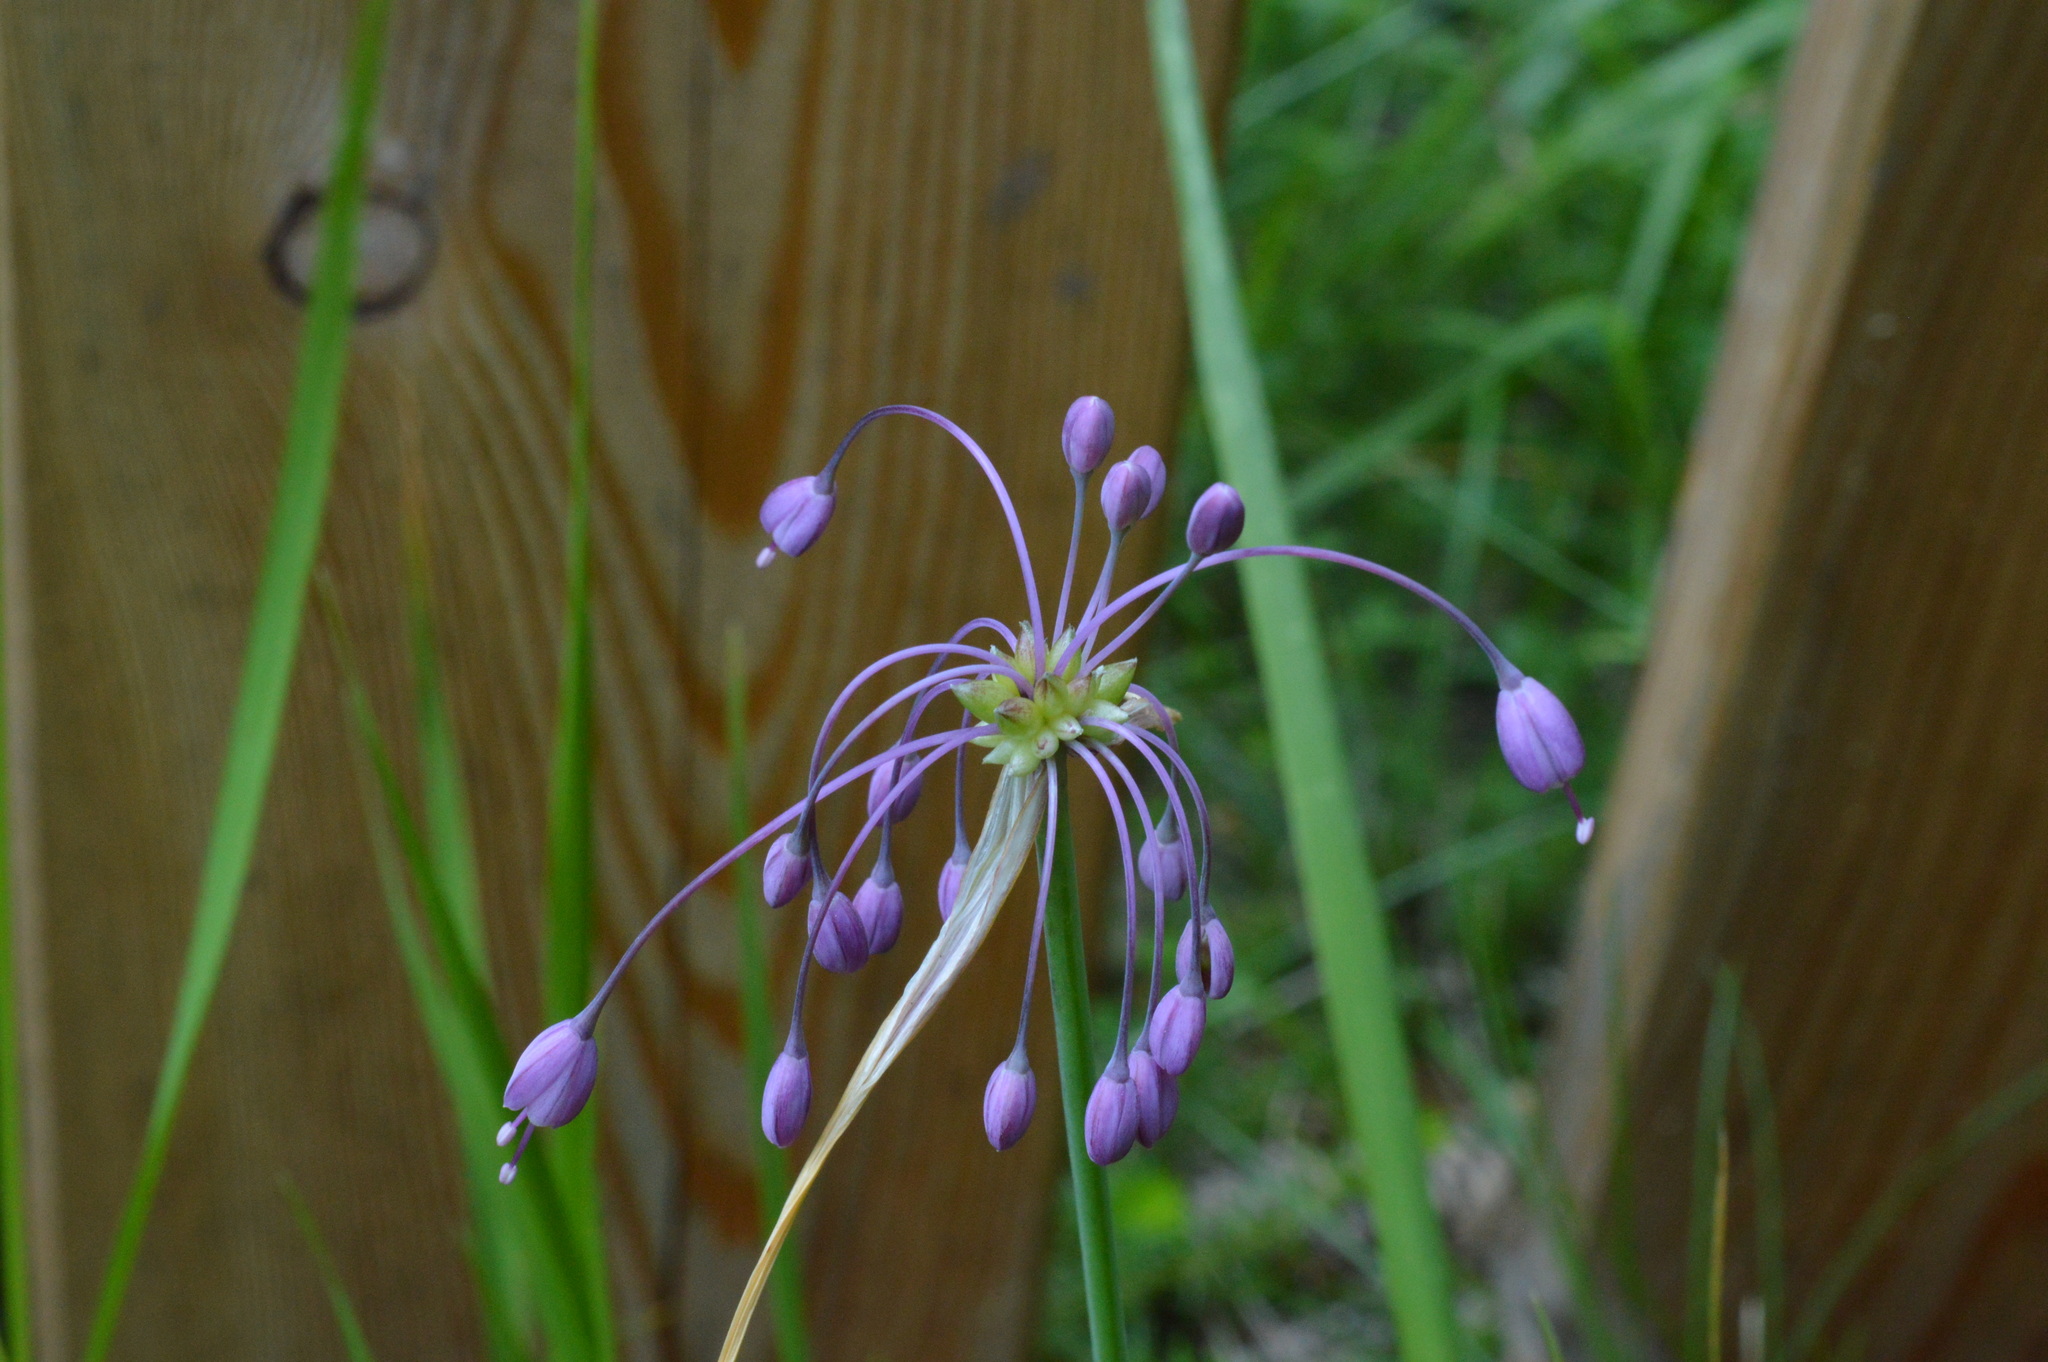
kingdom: Plantae
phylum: Tracheophyta
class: Liliopsida
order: Asparagales
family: Amaryllidaceae
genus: Allium
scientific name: Allium carinatum
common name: Keeled garlic
